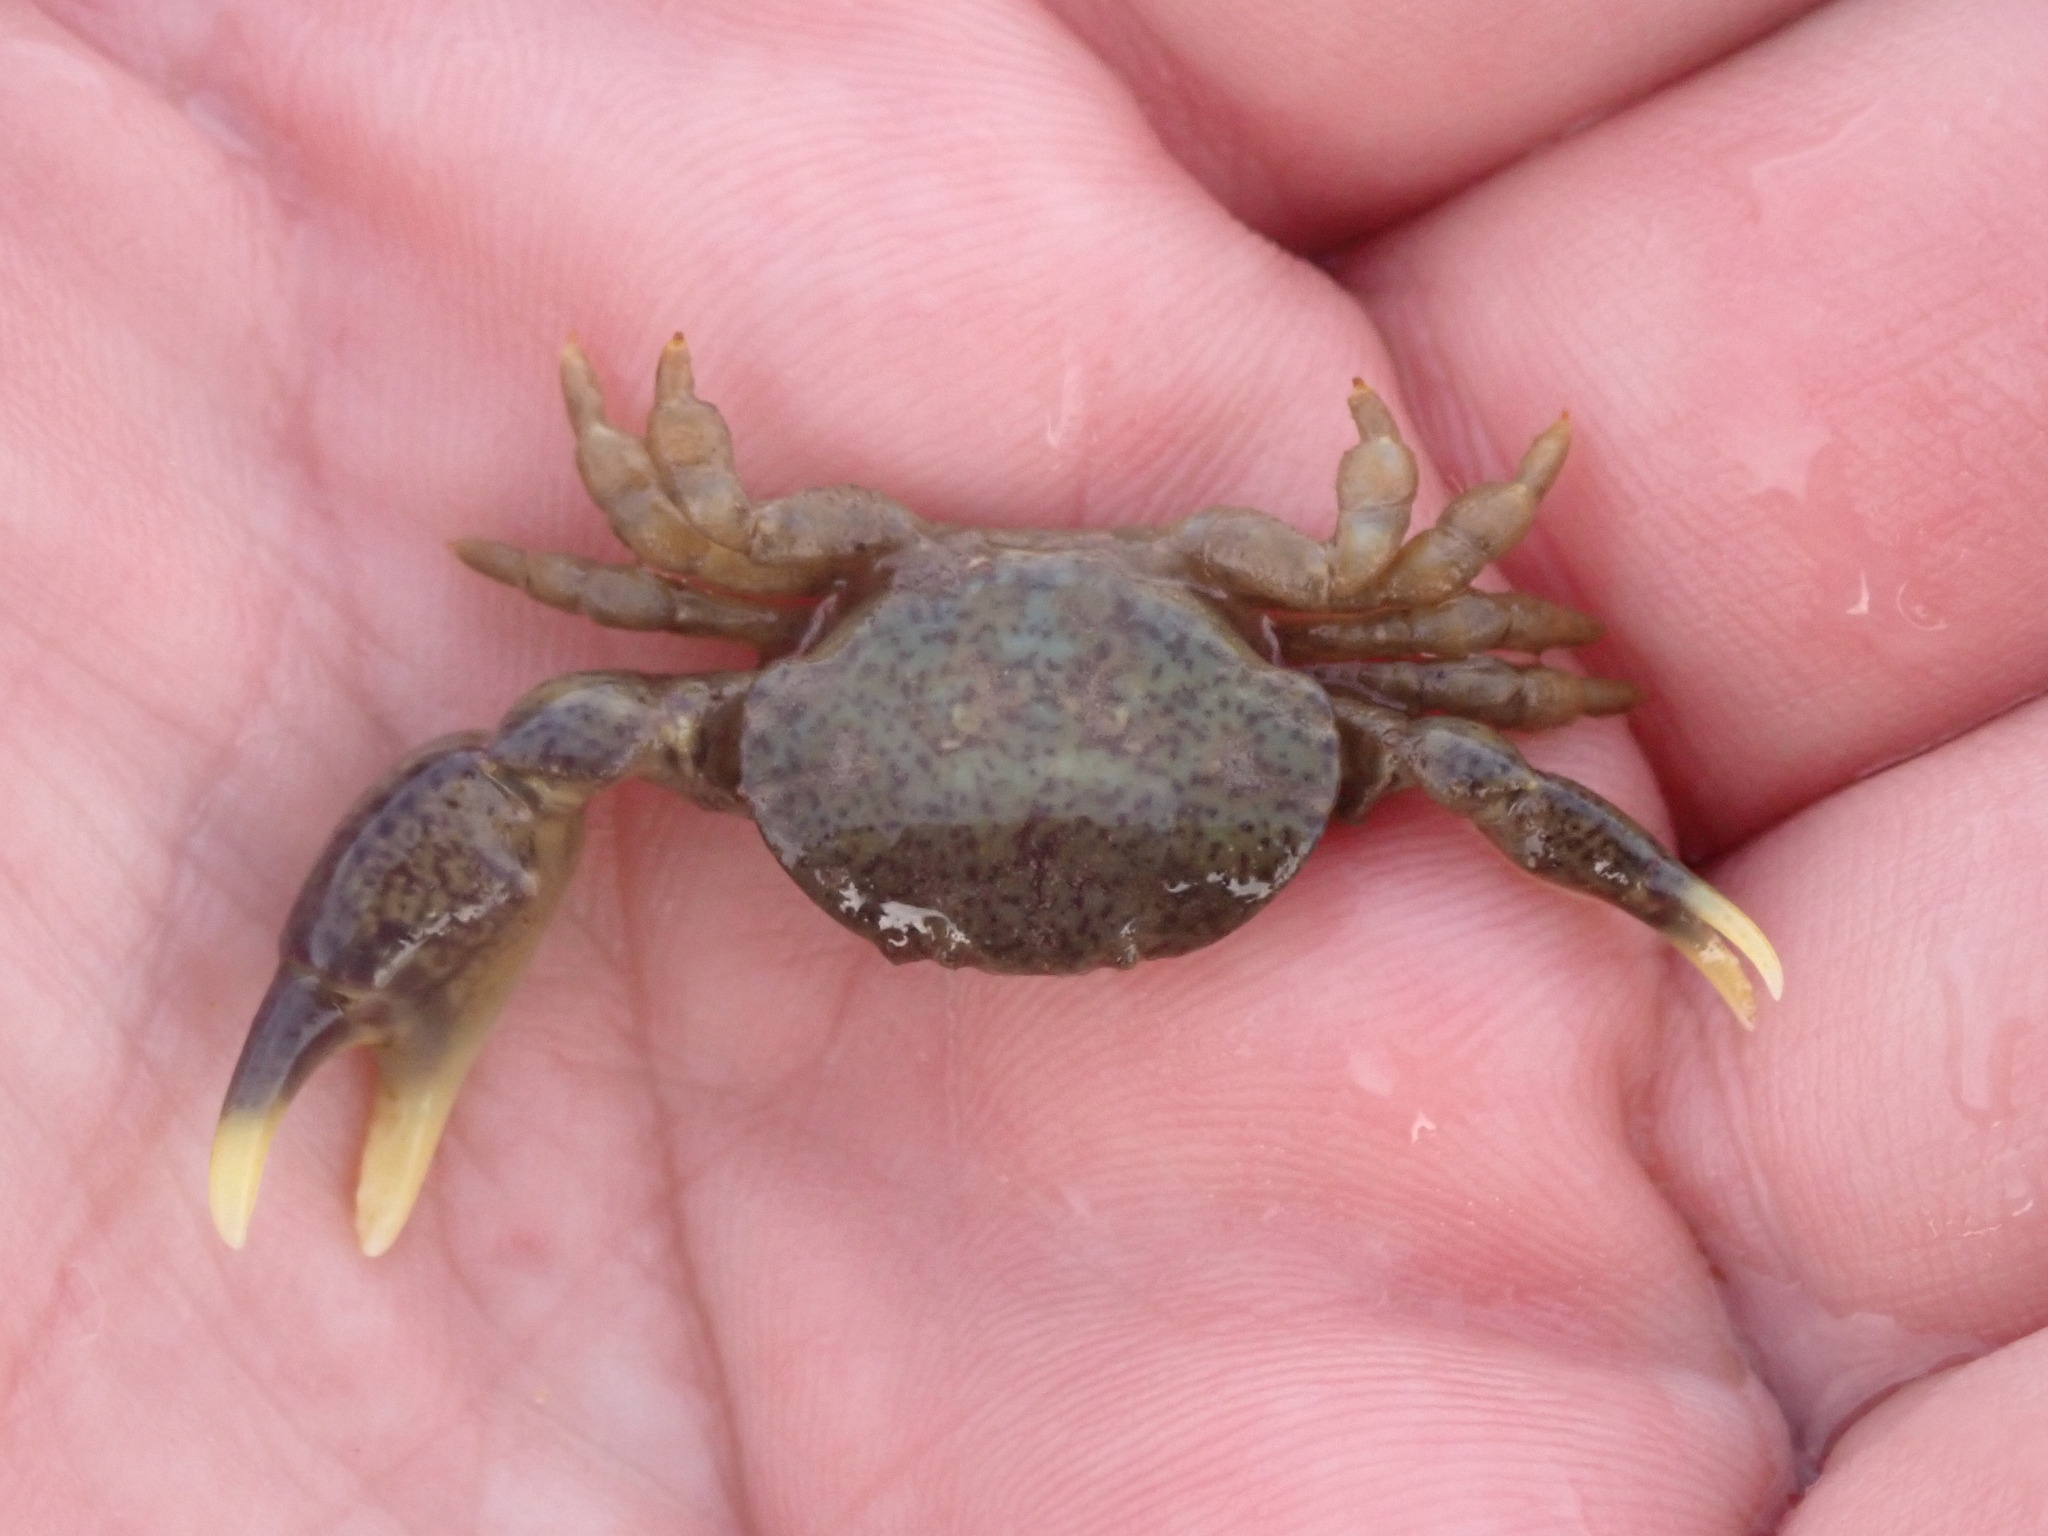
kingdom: Animalia
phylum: Arthropoda
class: Malacostraca
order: Decapoda
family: Heteroziidae
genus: Heterozius
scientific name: Heterozius rotundifrons
